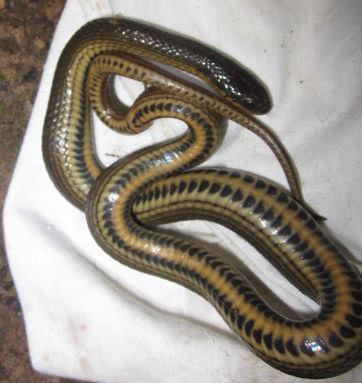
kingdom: Animalia
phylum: Chordata
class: Squamata
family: Colubridae
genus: Liodytes
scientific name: Liodytes rigida
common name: Crayfish snake
